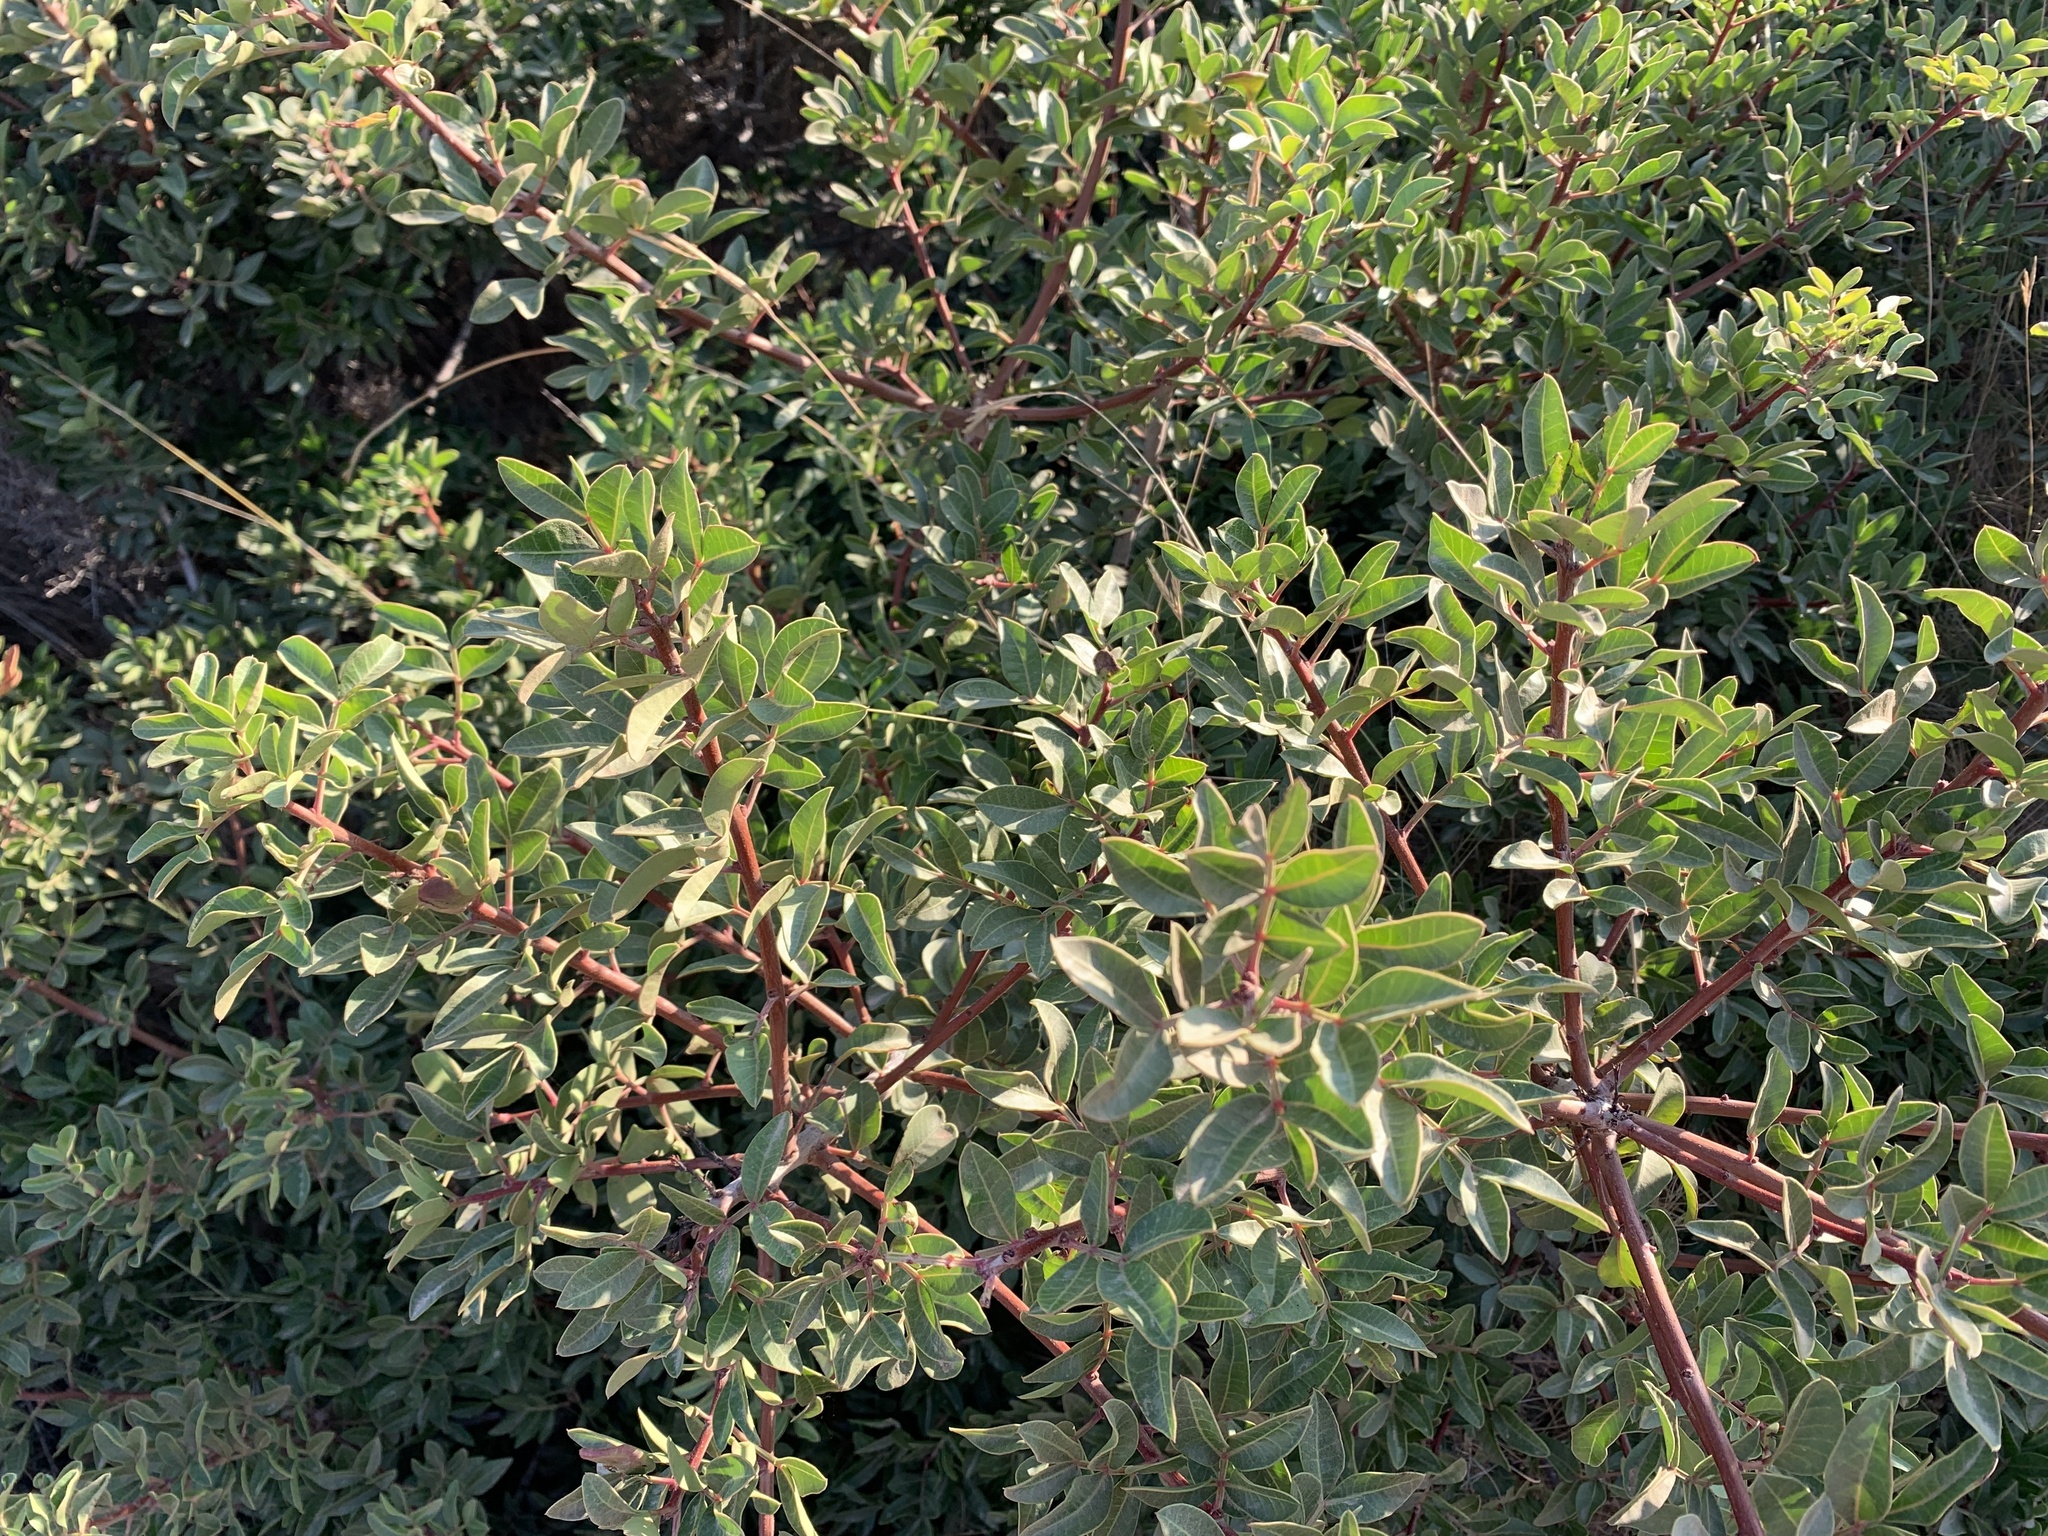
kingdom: Plantae
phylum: Tracheophyta
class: Magnoliopsida
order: Sapindales
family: Anacardiaceae
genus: Pistacia
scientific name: Pistacia lentiscus
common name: Lentisk
